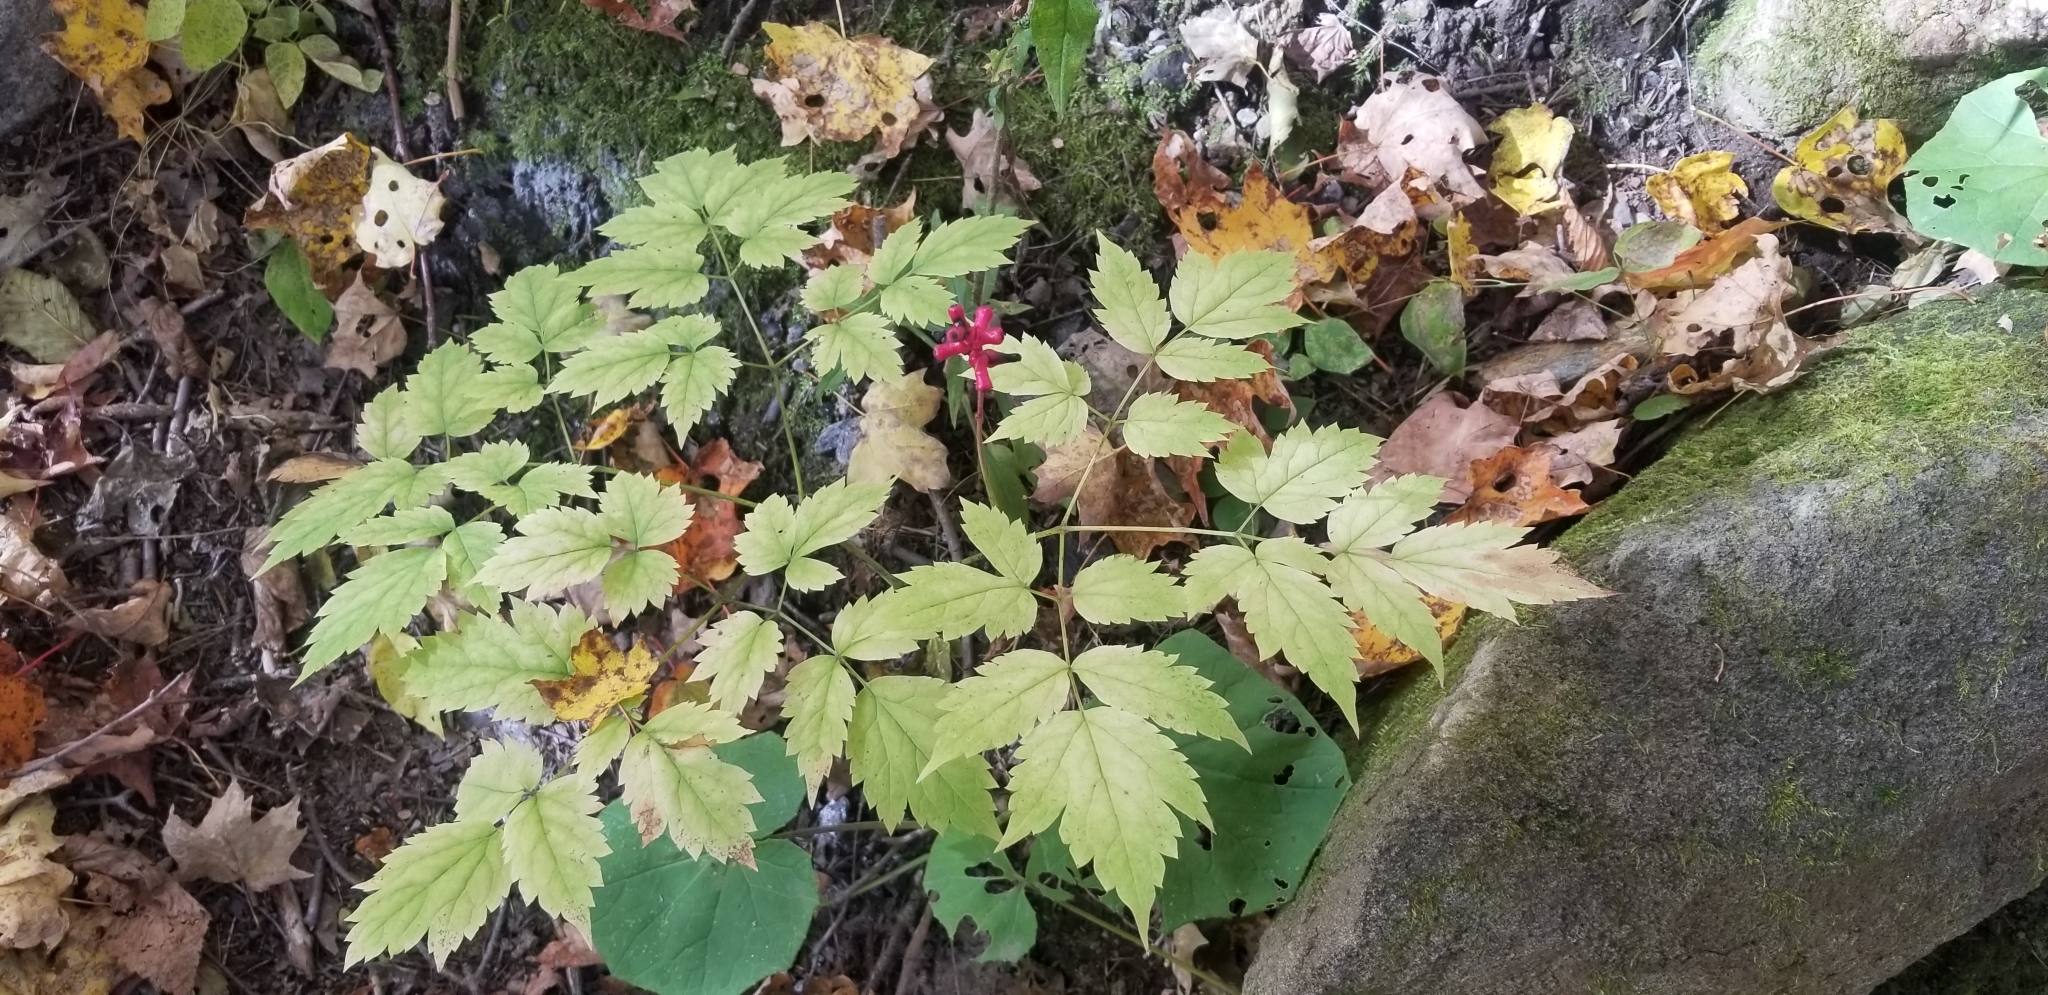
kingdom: Plantae
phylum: Tracheophyta
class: Magnoliopsida
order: Ranunculales
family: Ranunculaceae
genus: Actaea
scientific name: Actaea pachypoda
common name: Doll's-eyes
